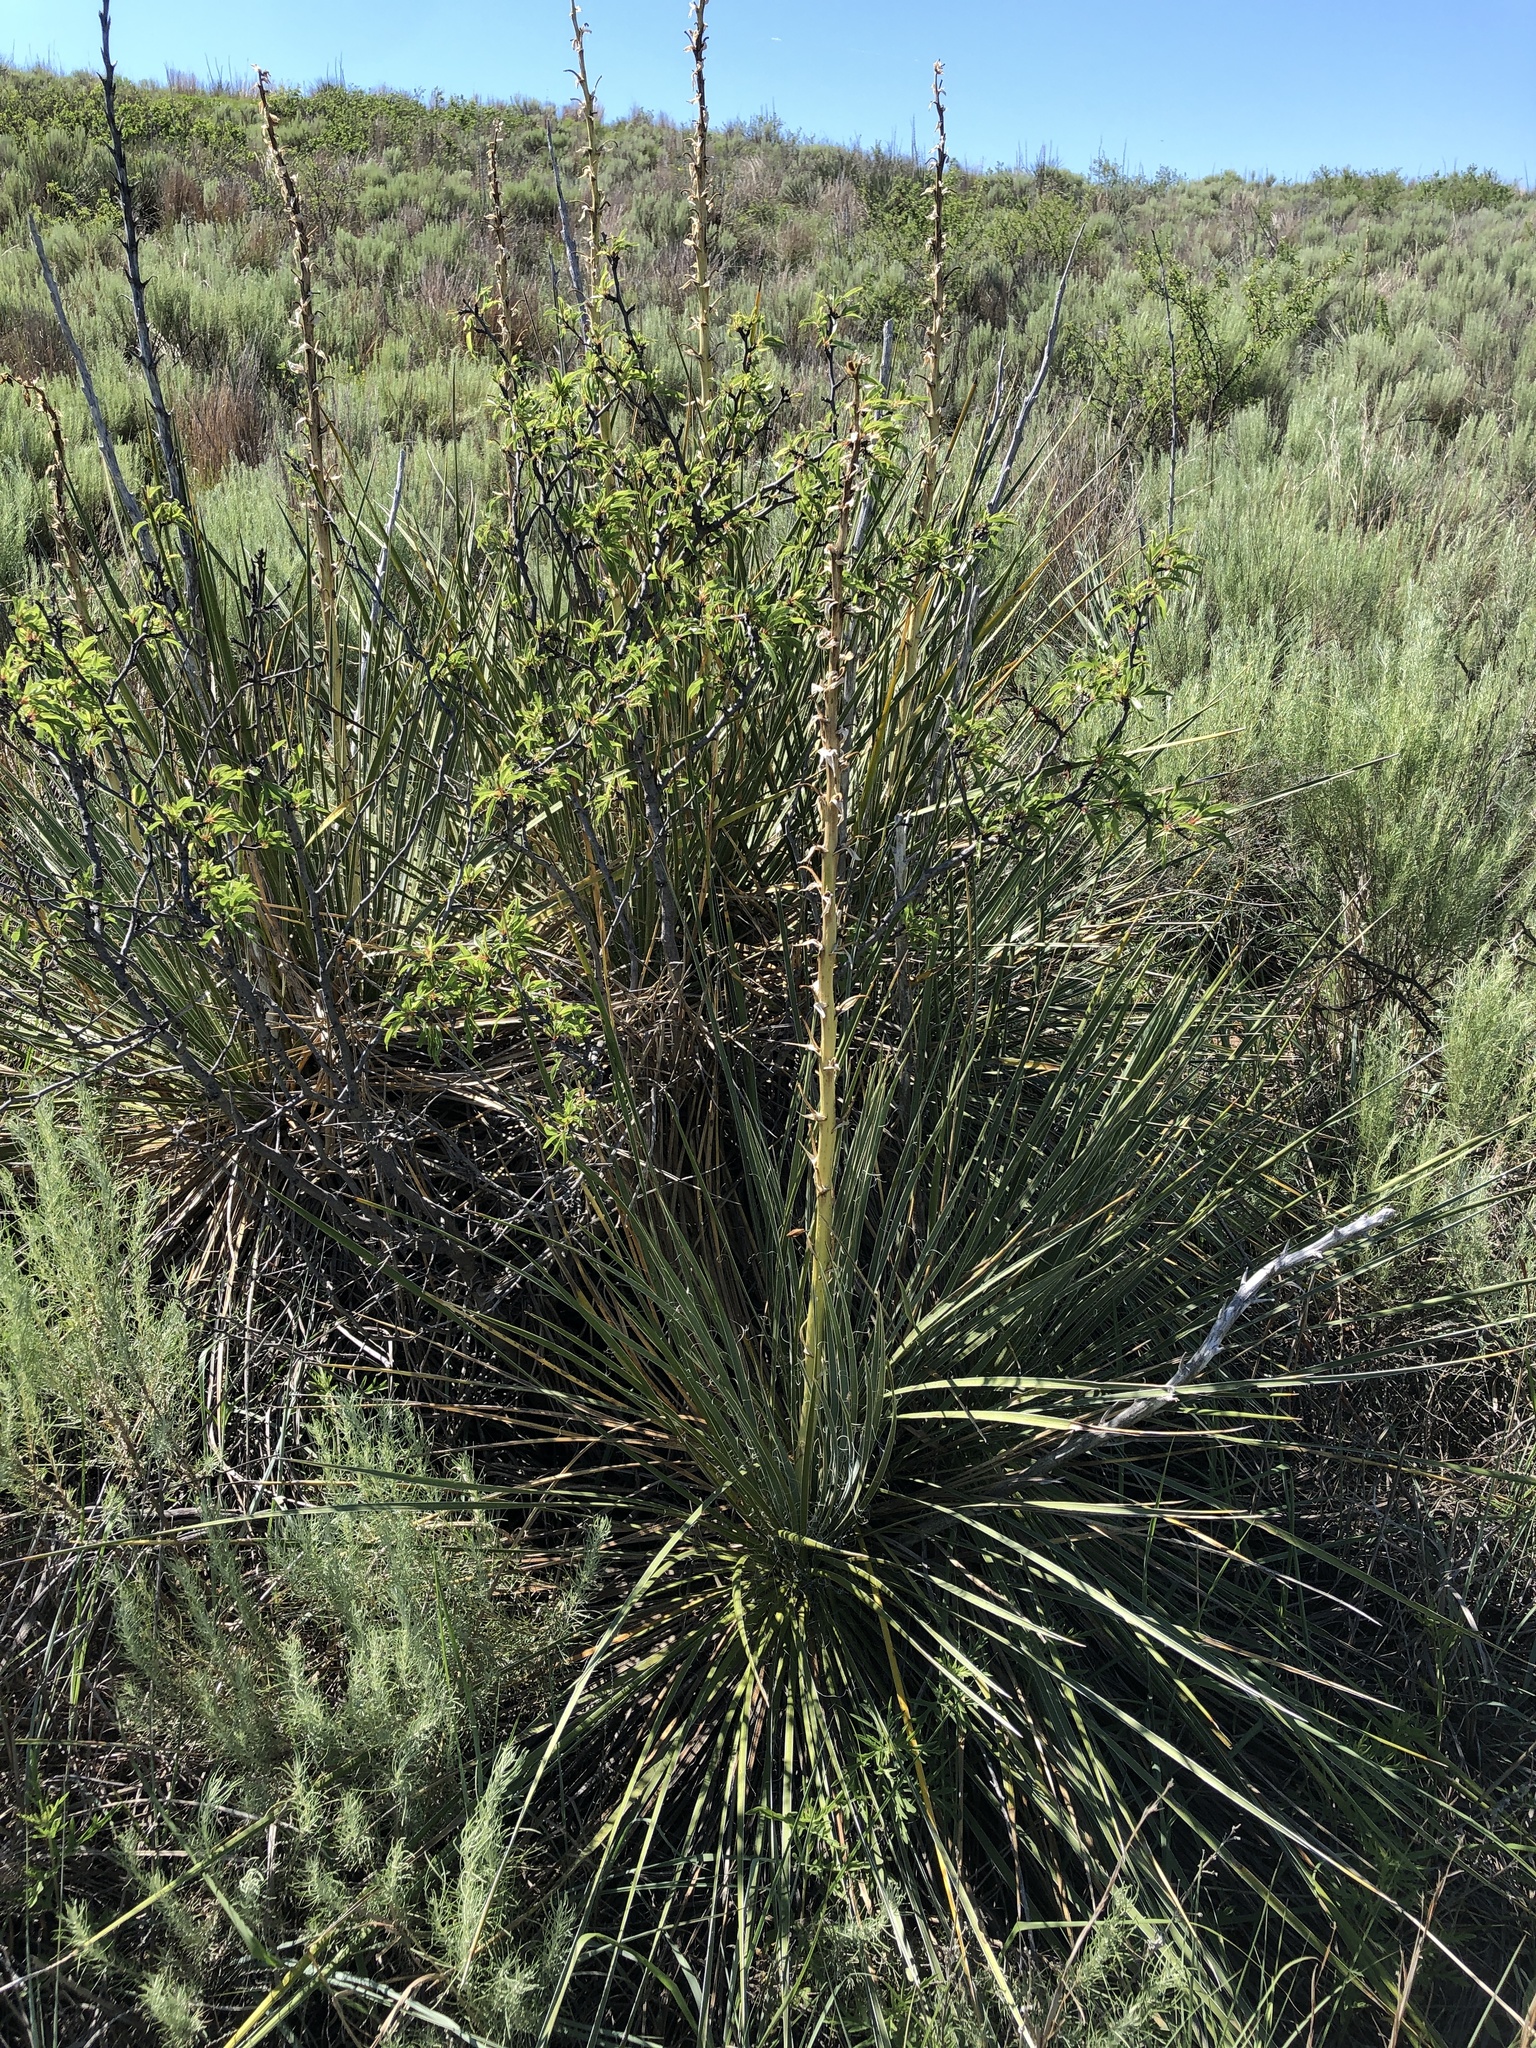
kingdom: Plantae
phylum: Tracheophyta
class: Liliopsida
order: Asparagales
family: Asparagaceae
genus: Yucca
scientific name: Yucca glauca
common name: Great plains yucca
